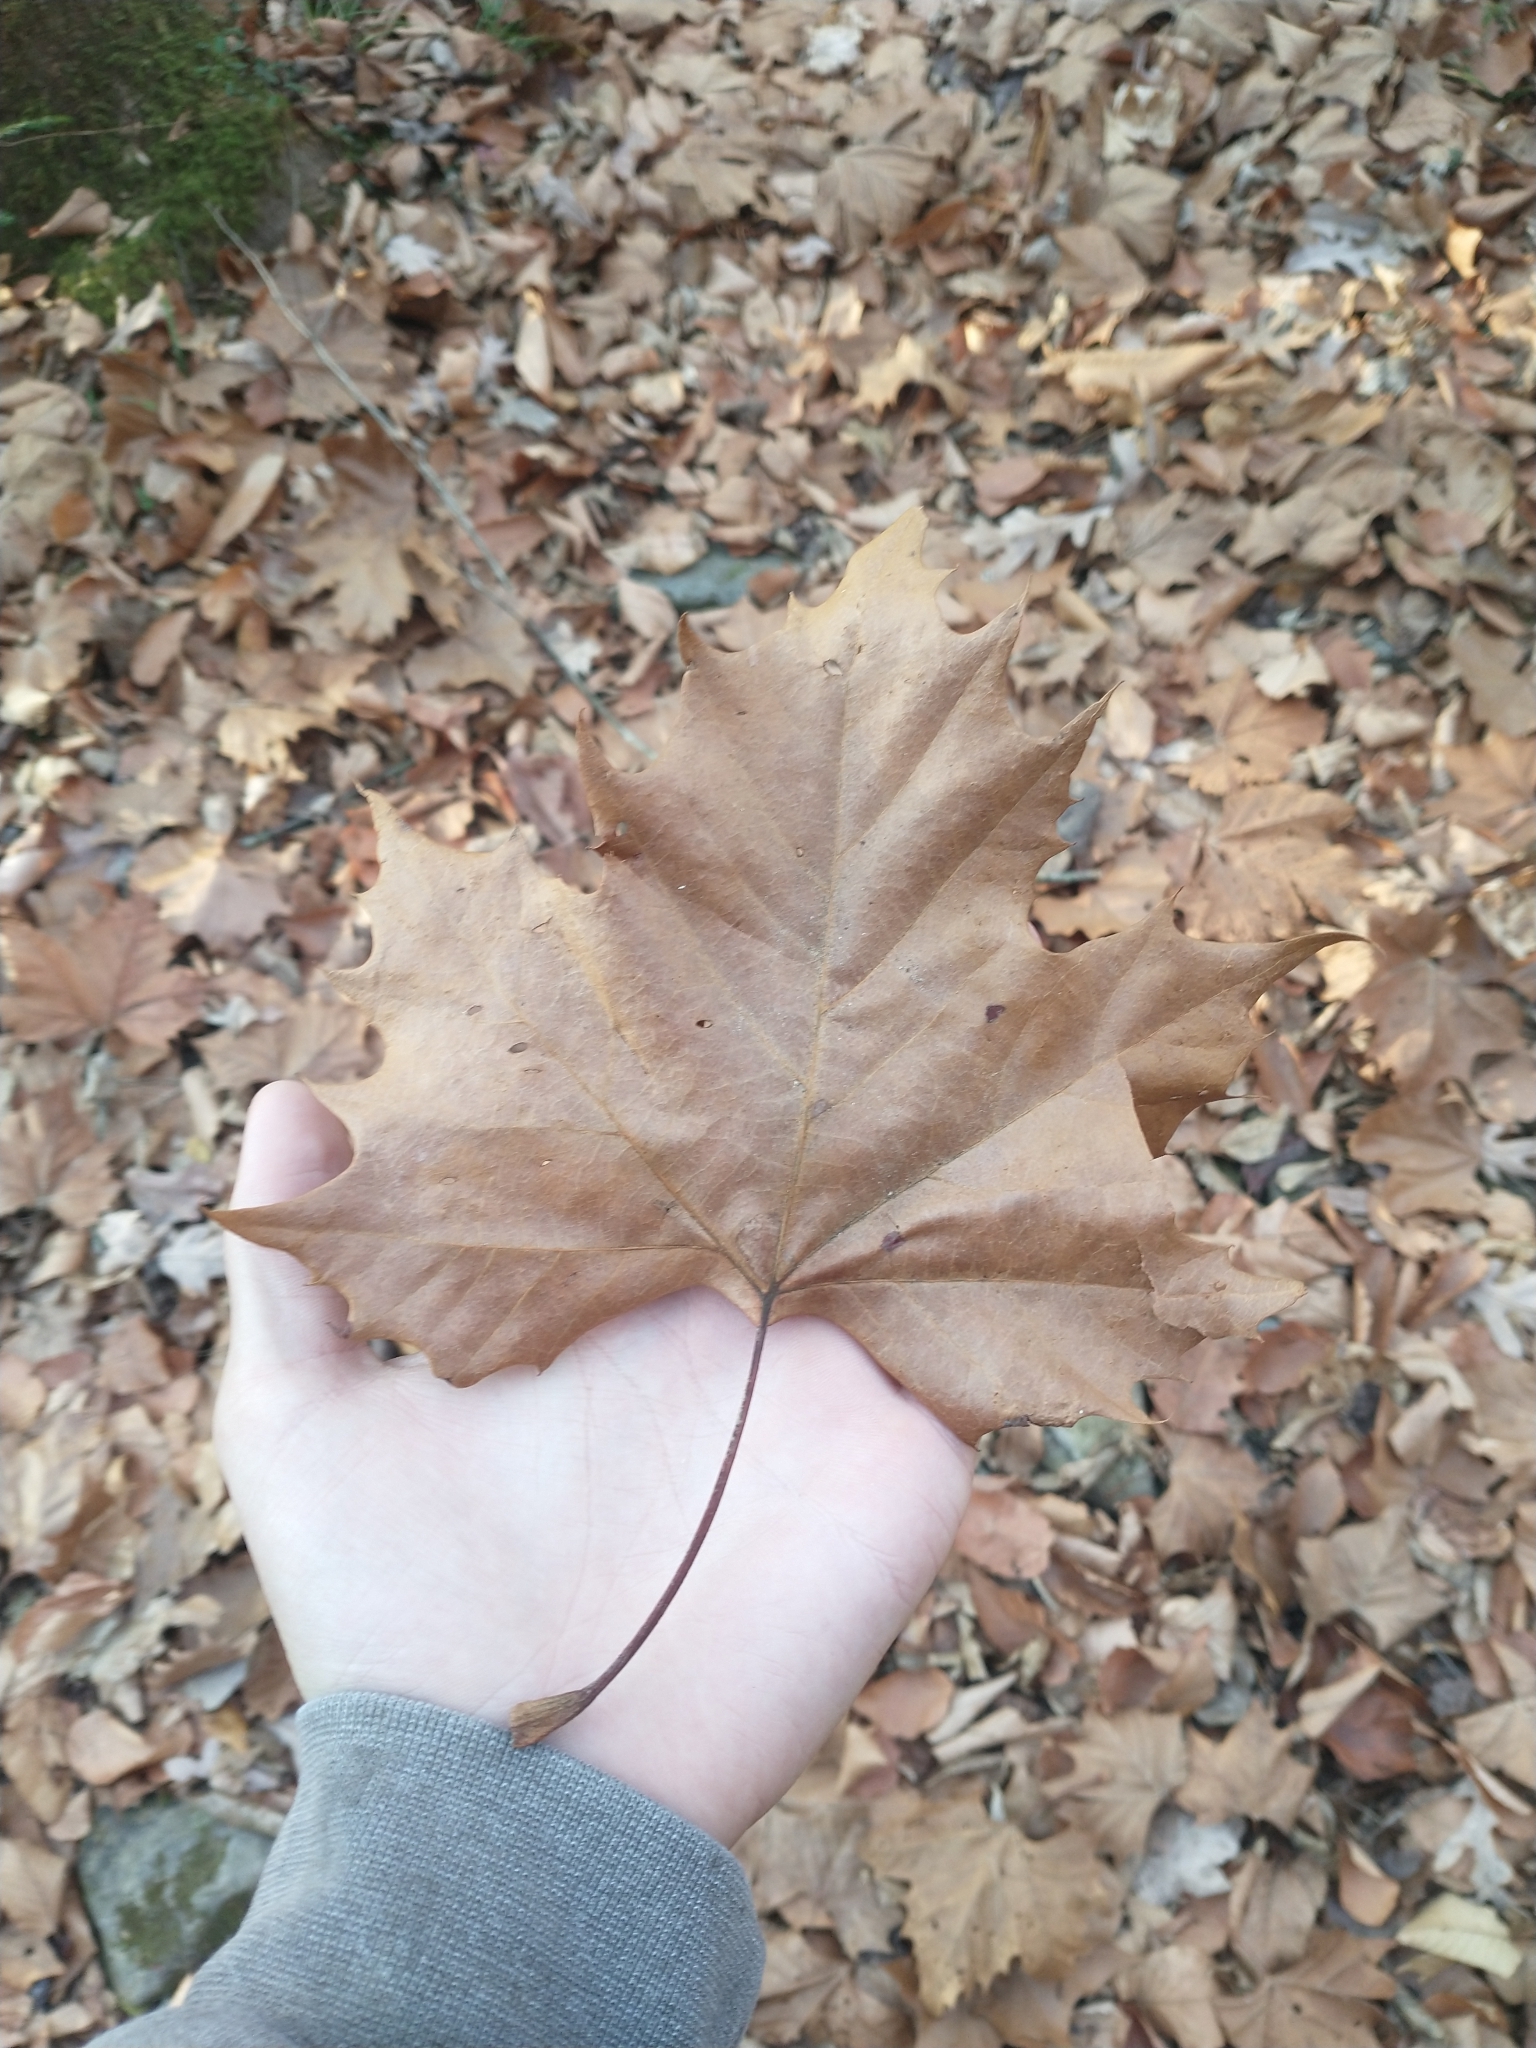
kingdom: Plantae
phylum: Tracheophyta
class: Magnoliopsida
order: Proteales
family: Platanaceae
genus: Platanus
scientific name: Platanus occidentalis
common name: American sycamore
